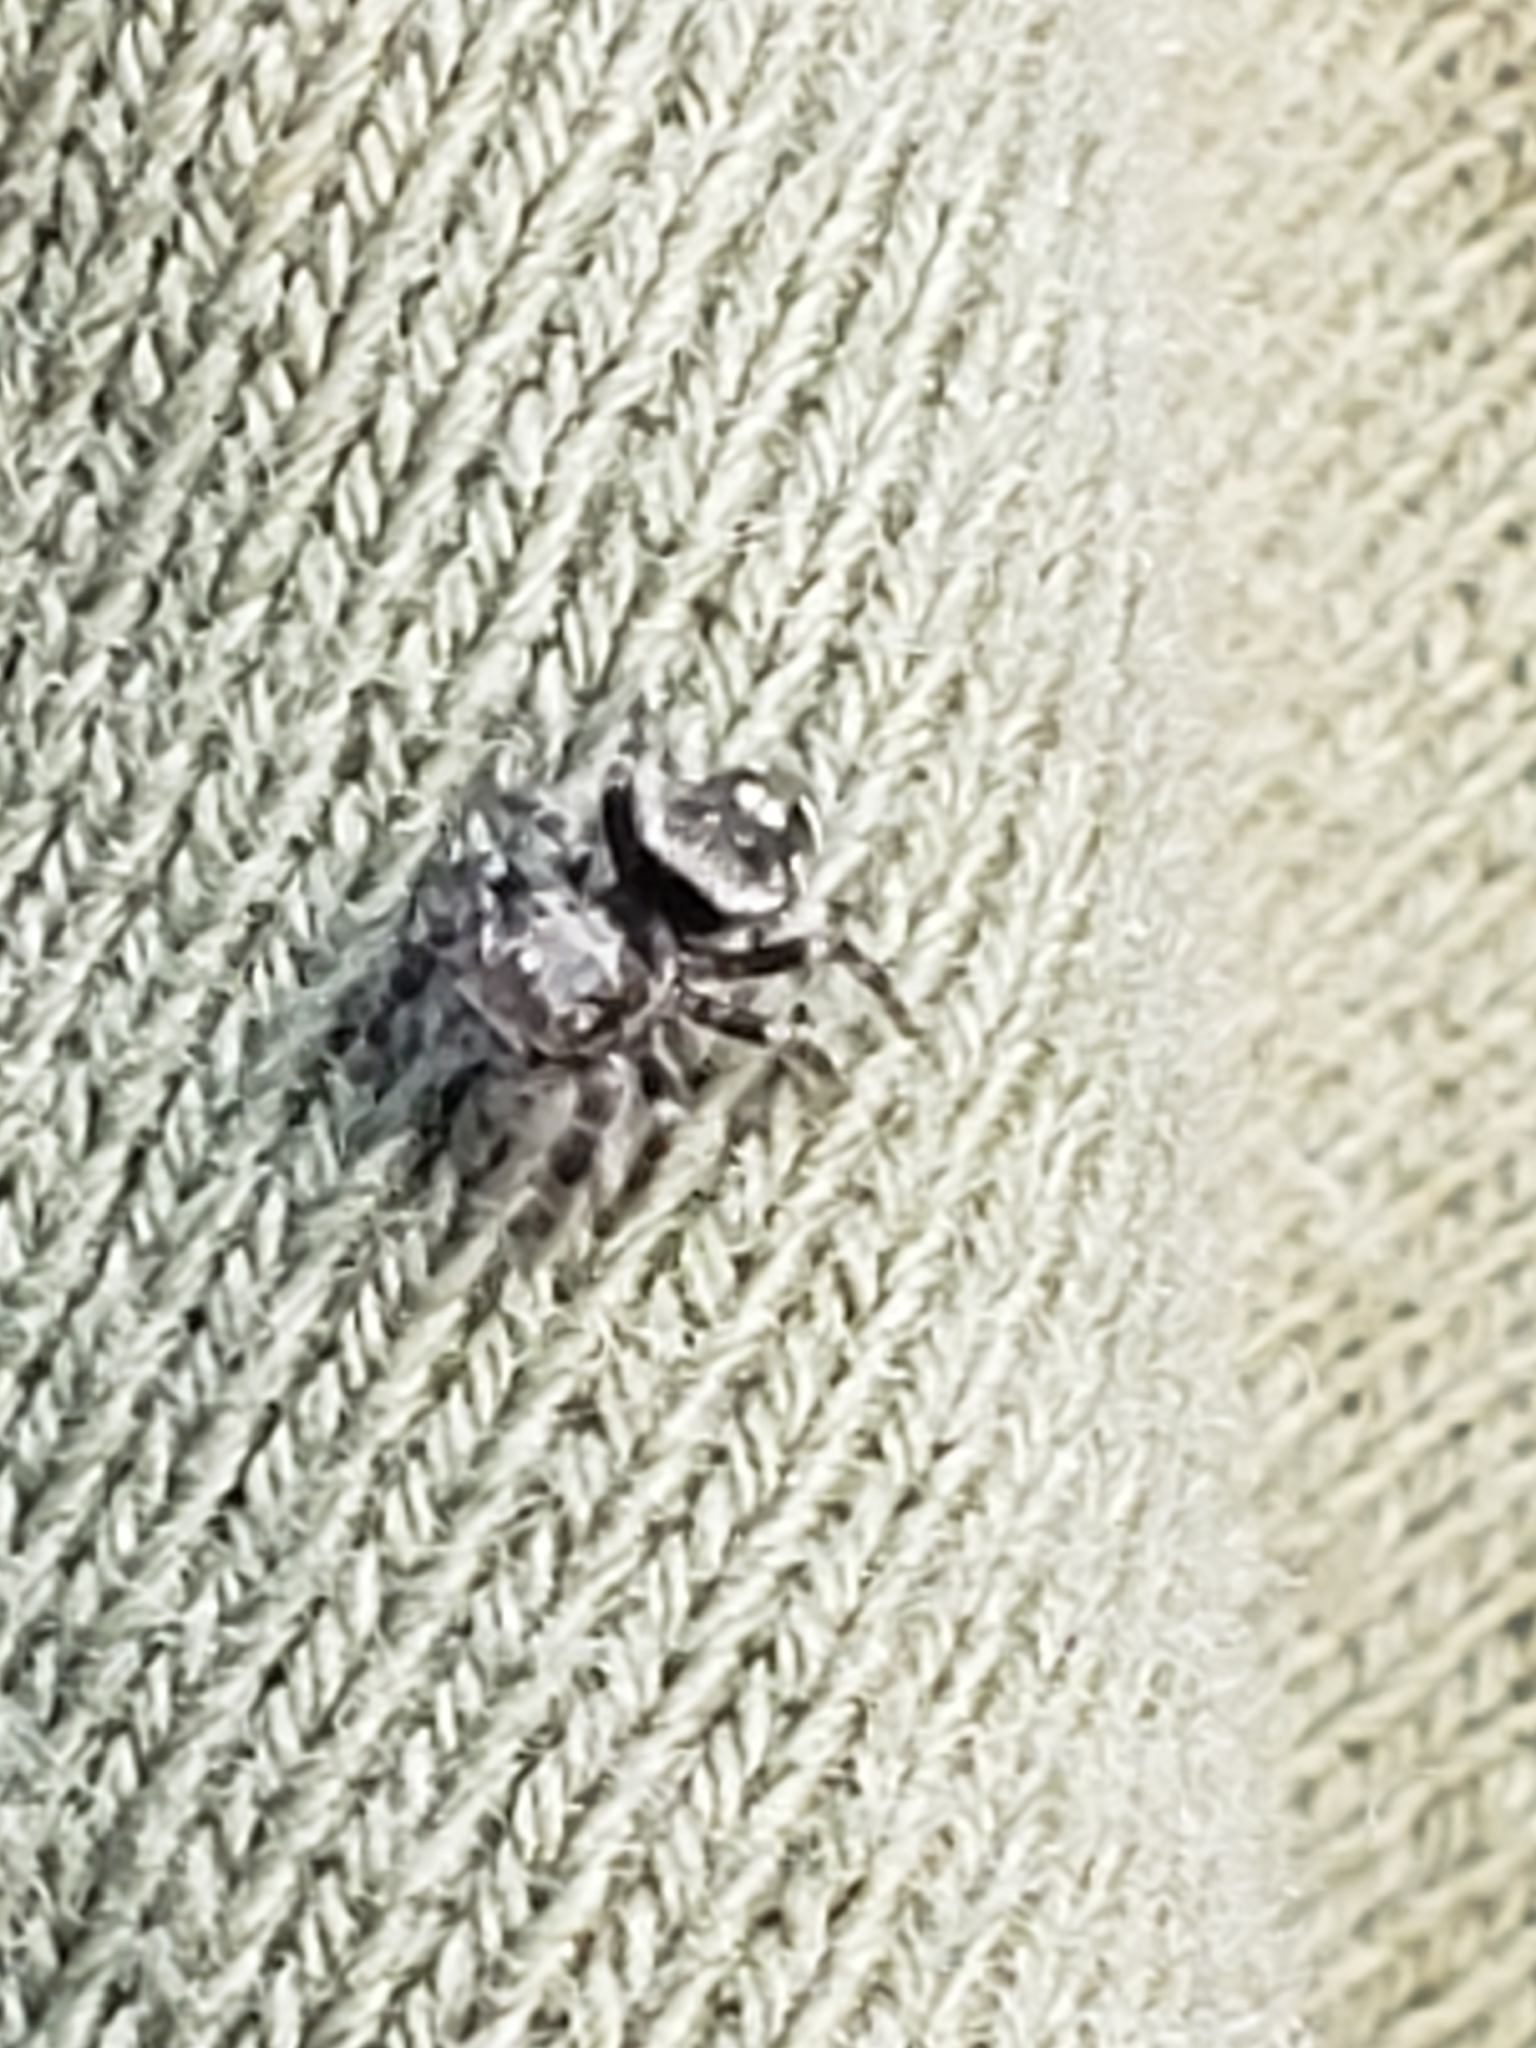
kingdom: Animalia
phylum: Arthropoda
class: Arachnida
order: Araneae
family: Salticidae
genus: Phidippus
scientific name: Phidippus audax
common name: Bold jumper
